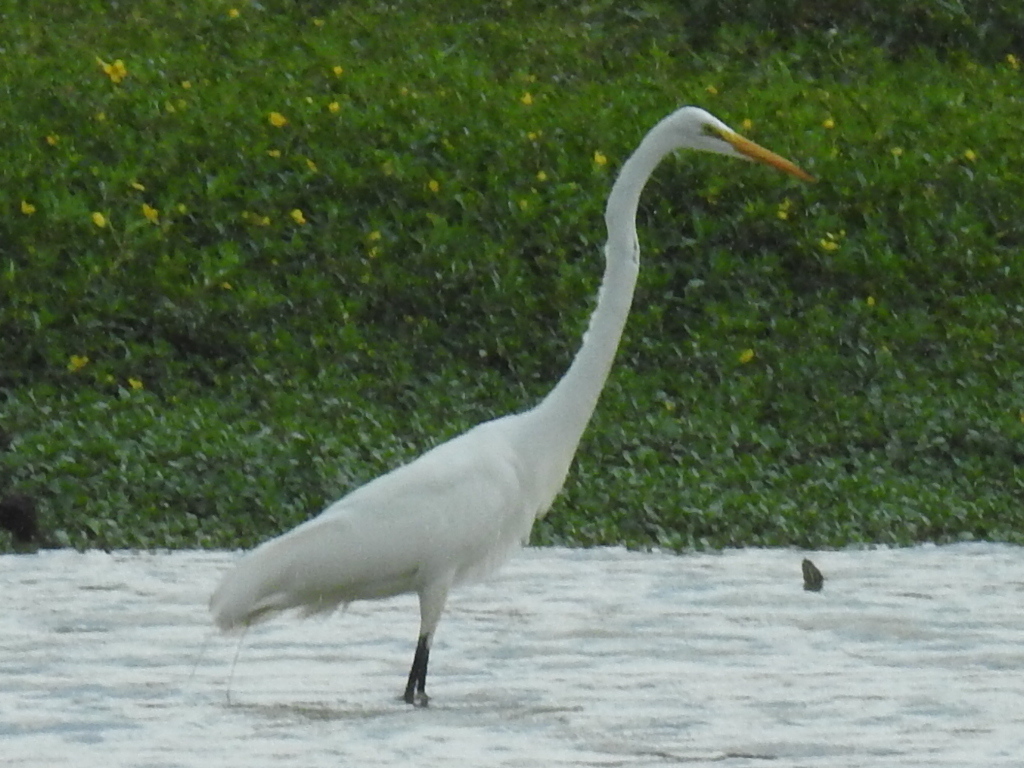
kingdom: Animalia
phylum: Chordata
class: Aves
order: Pelecaniformes
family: Ardeidae
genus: Ardea
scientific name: Ardea alba
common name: Great egret
